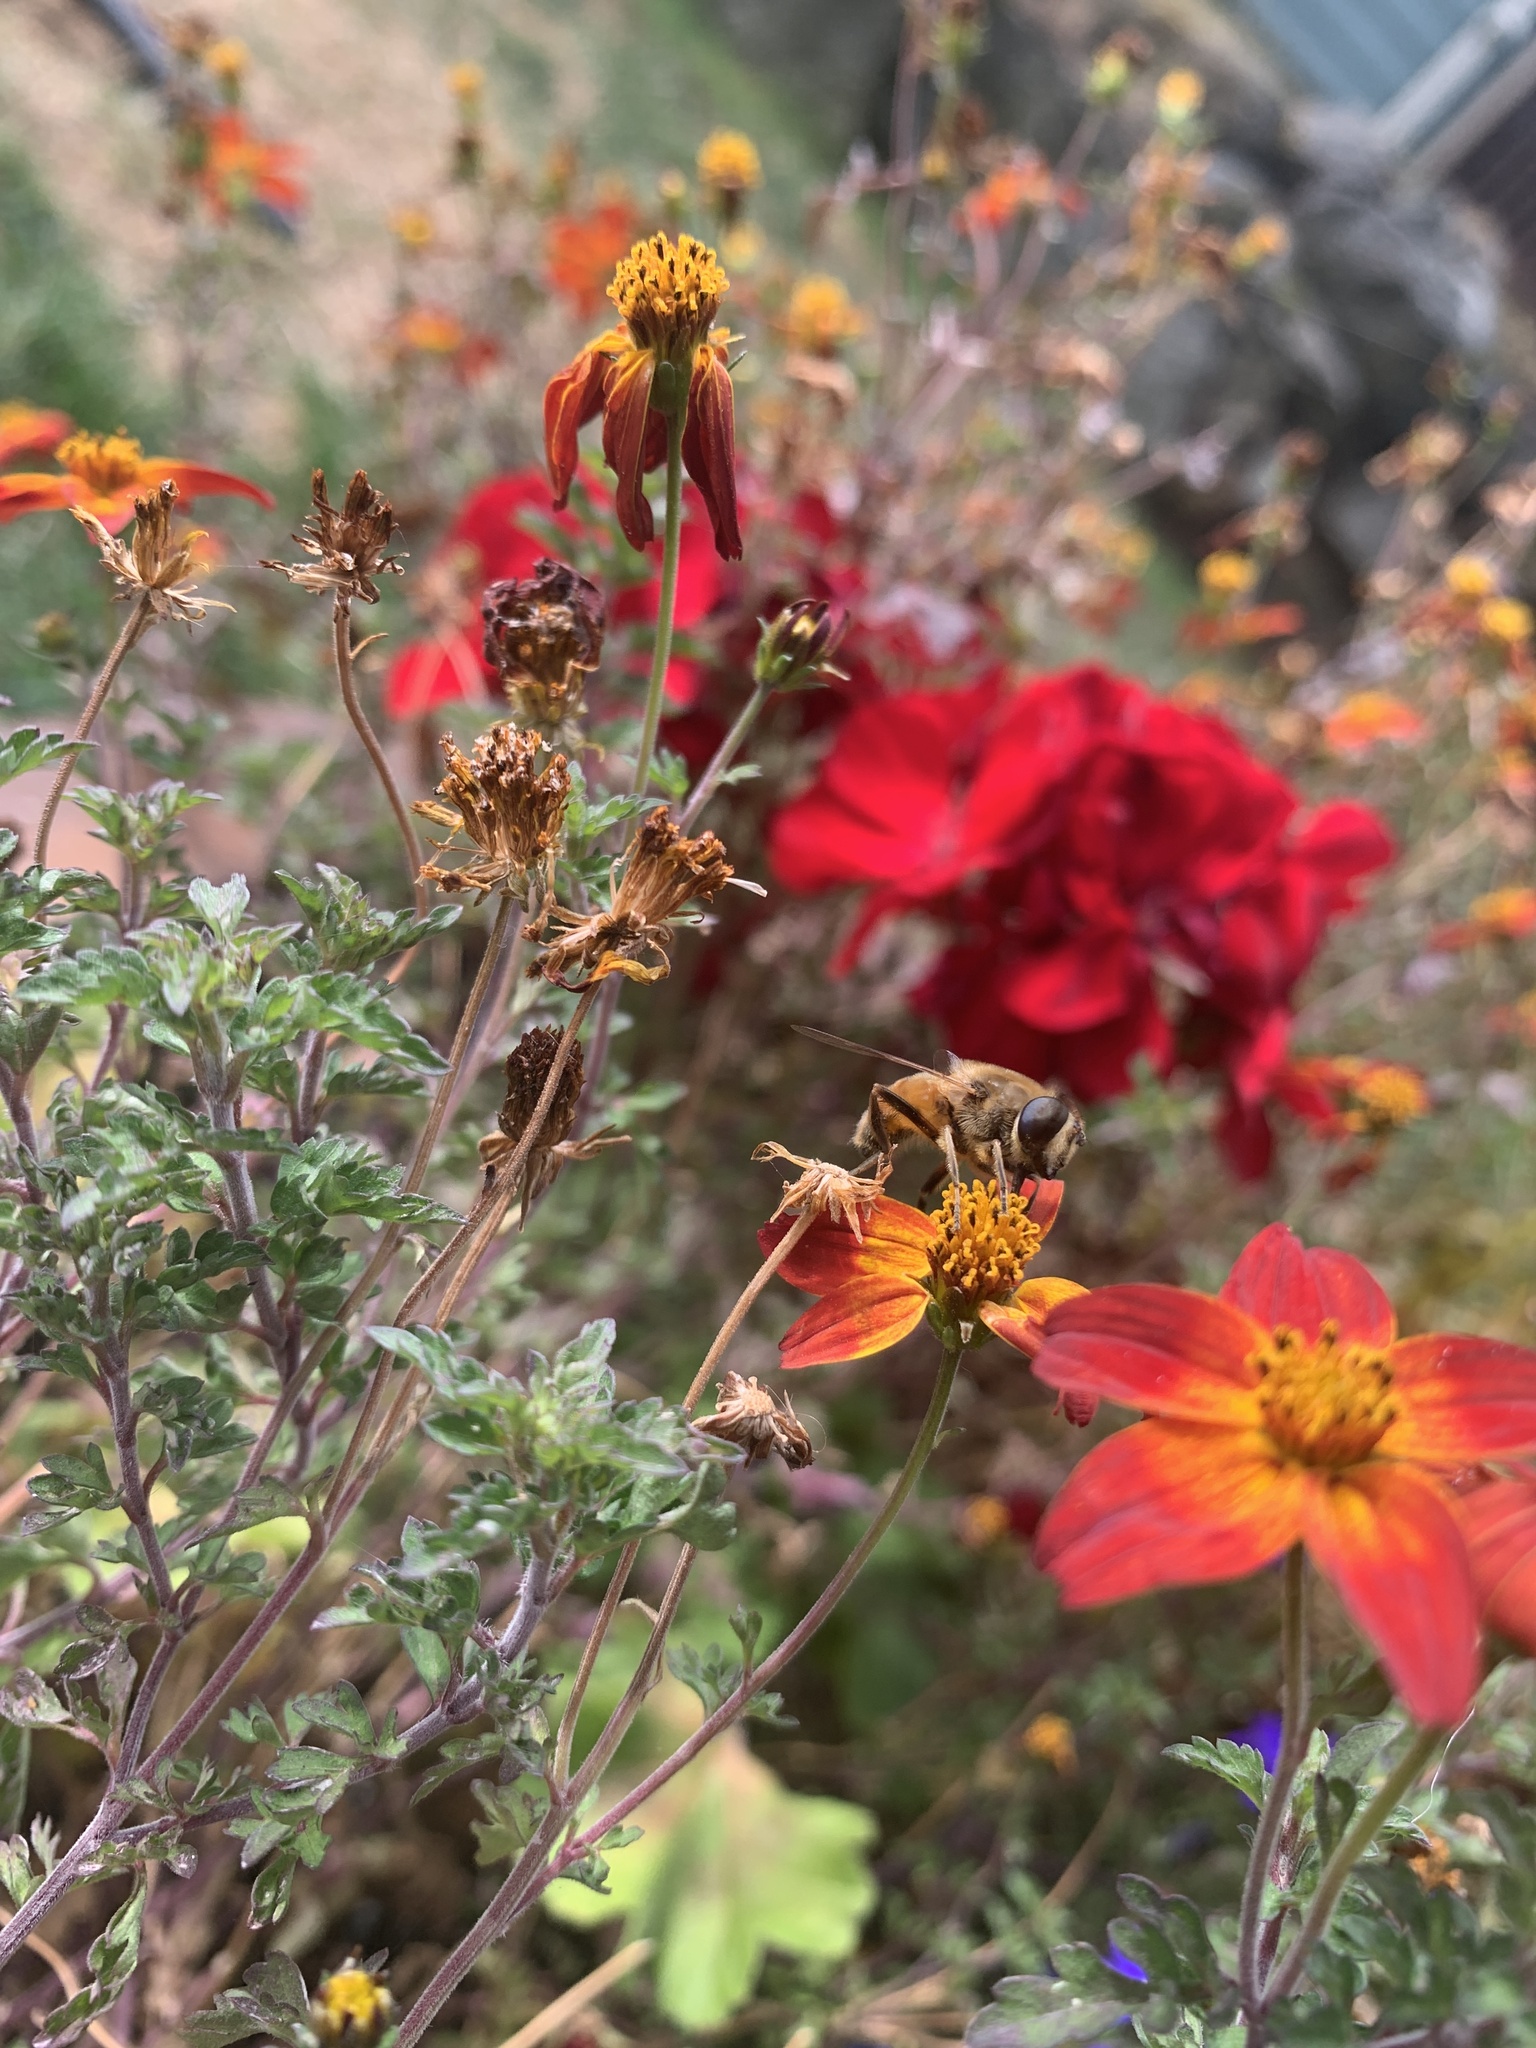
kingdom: Animalia
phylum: Arthropoda
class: Insecta
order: Diptera
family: Syrphidae
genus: Eristalis
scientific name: Eristalis tenax
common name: Drone fly
